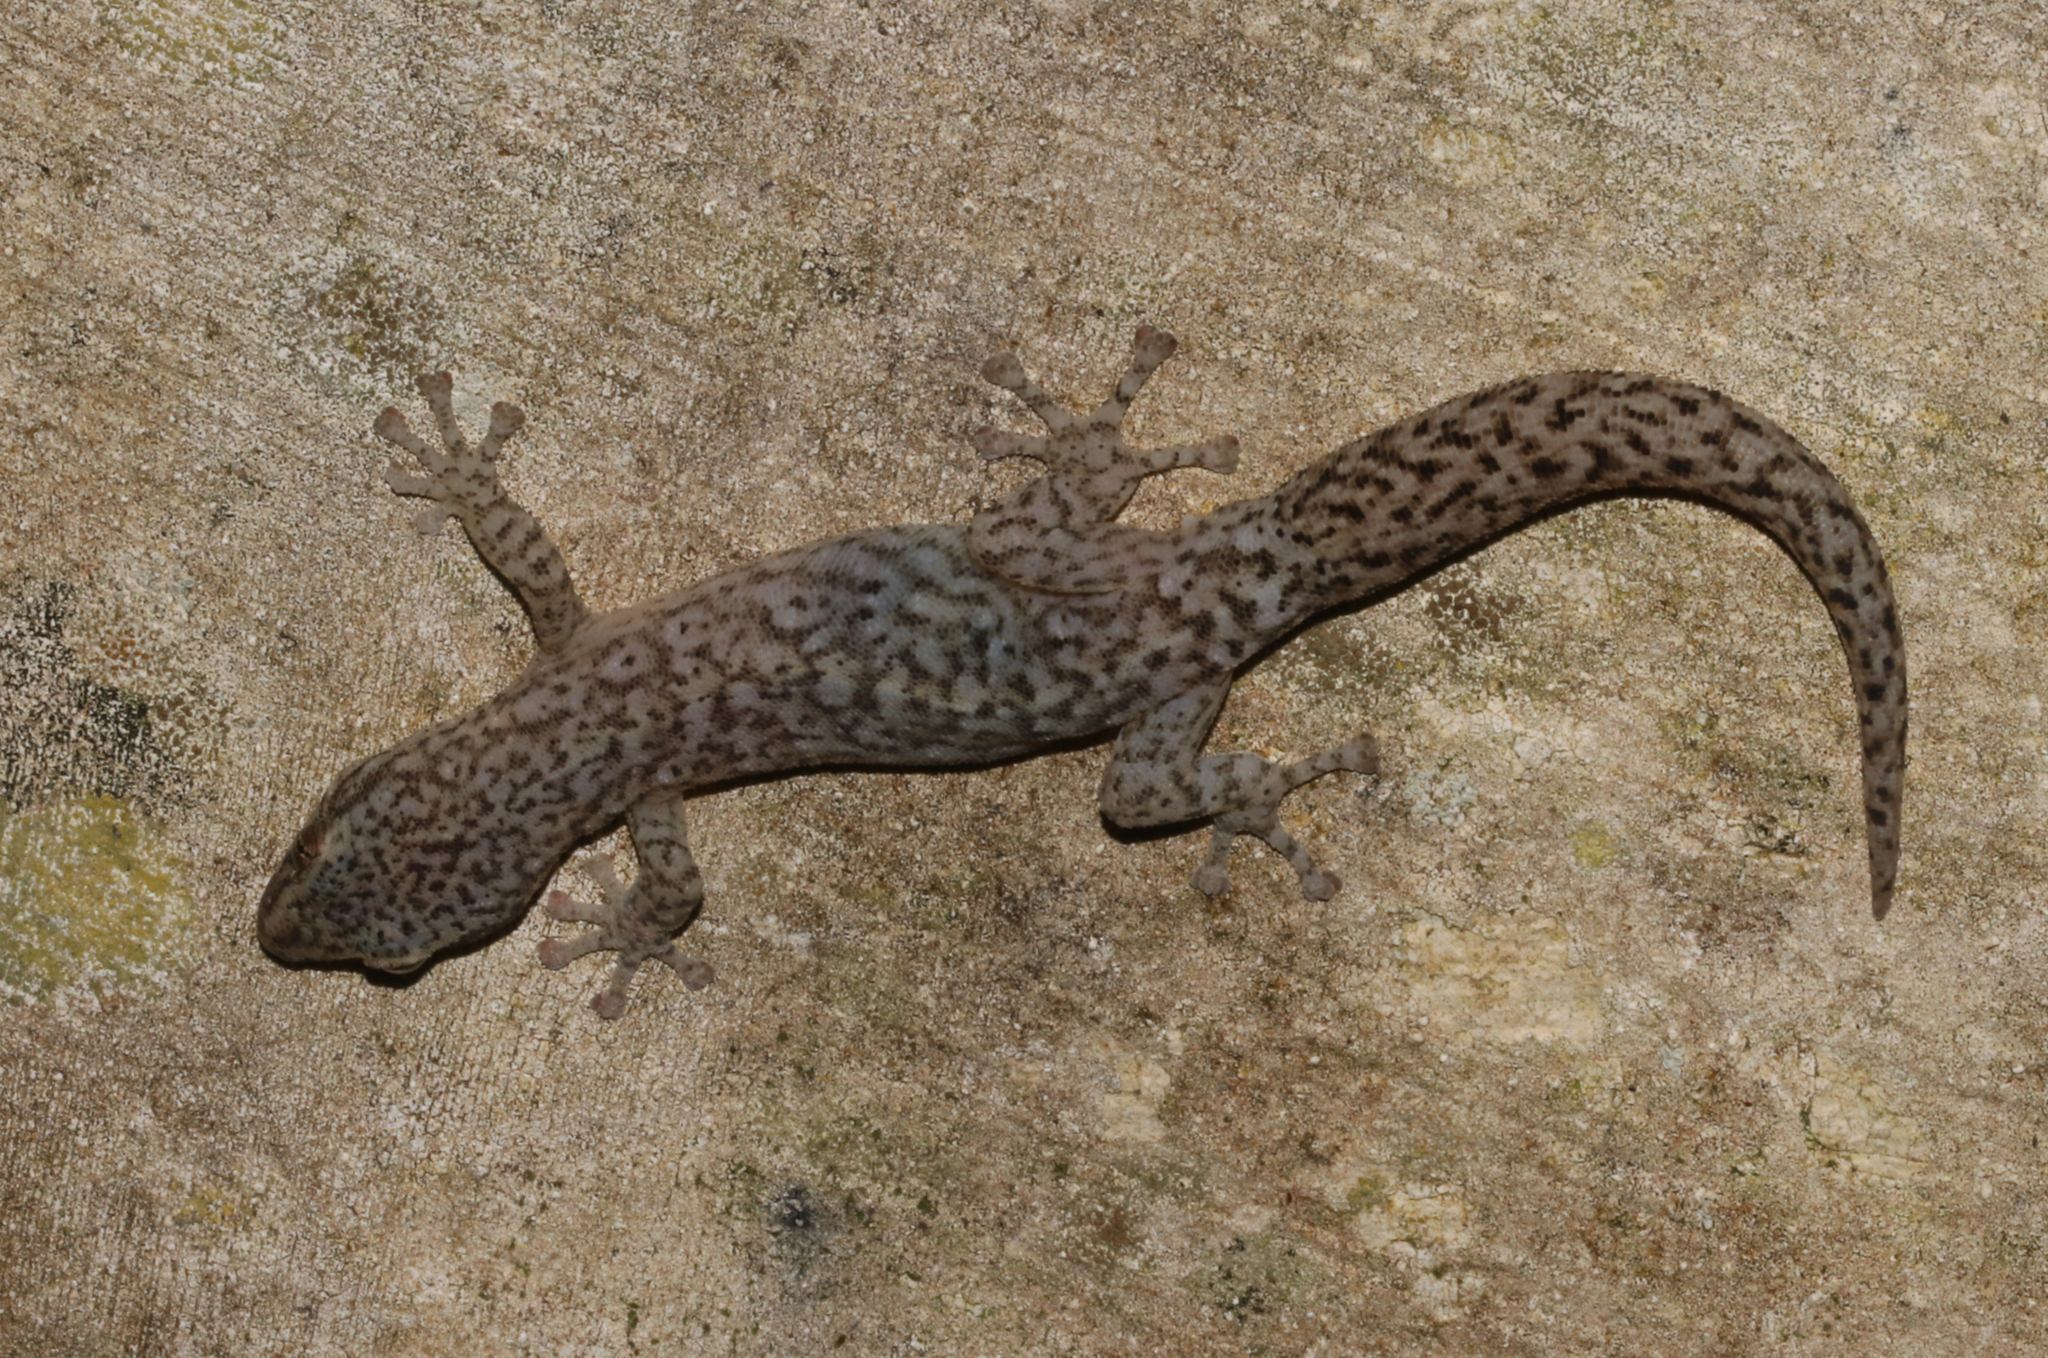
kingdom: Animalia
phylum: Chordata
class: Squamata
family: Gekkonidae
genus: Afrogecko
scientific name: Afrogecko porphyreus
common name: Marbled leaf-toed gecko
